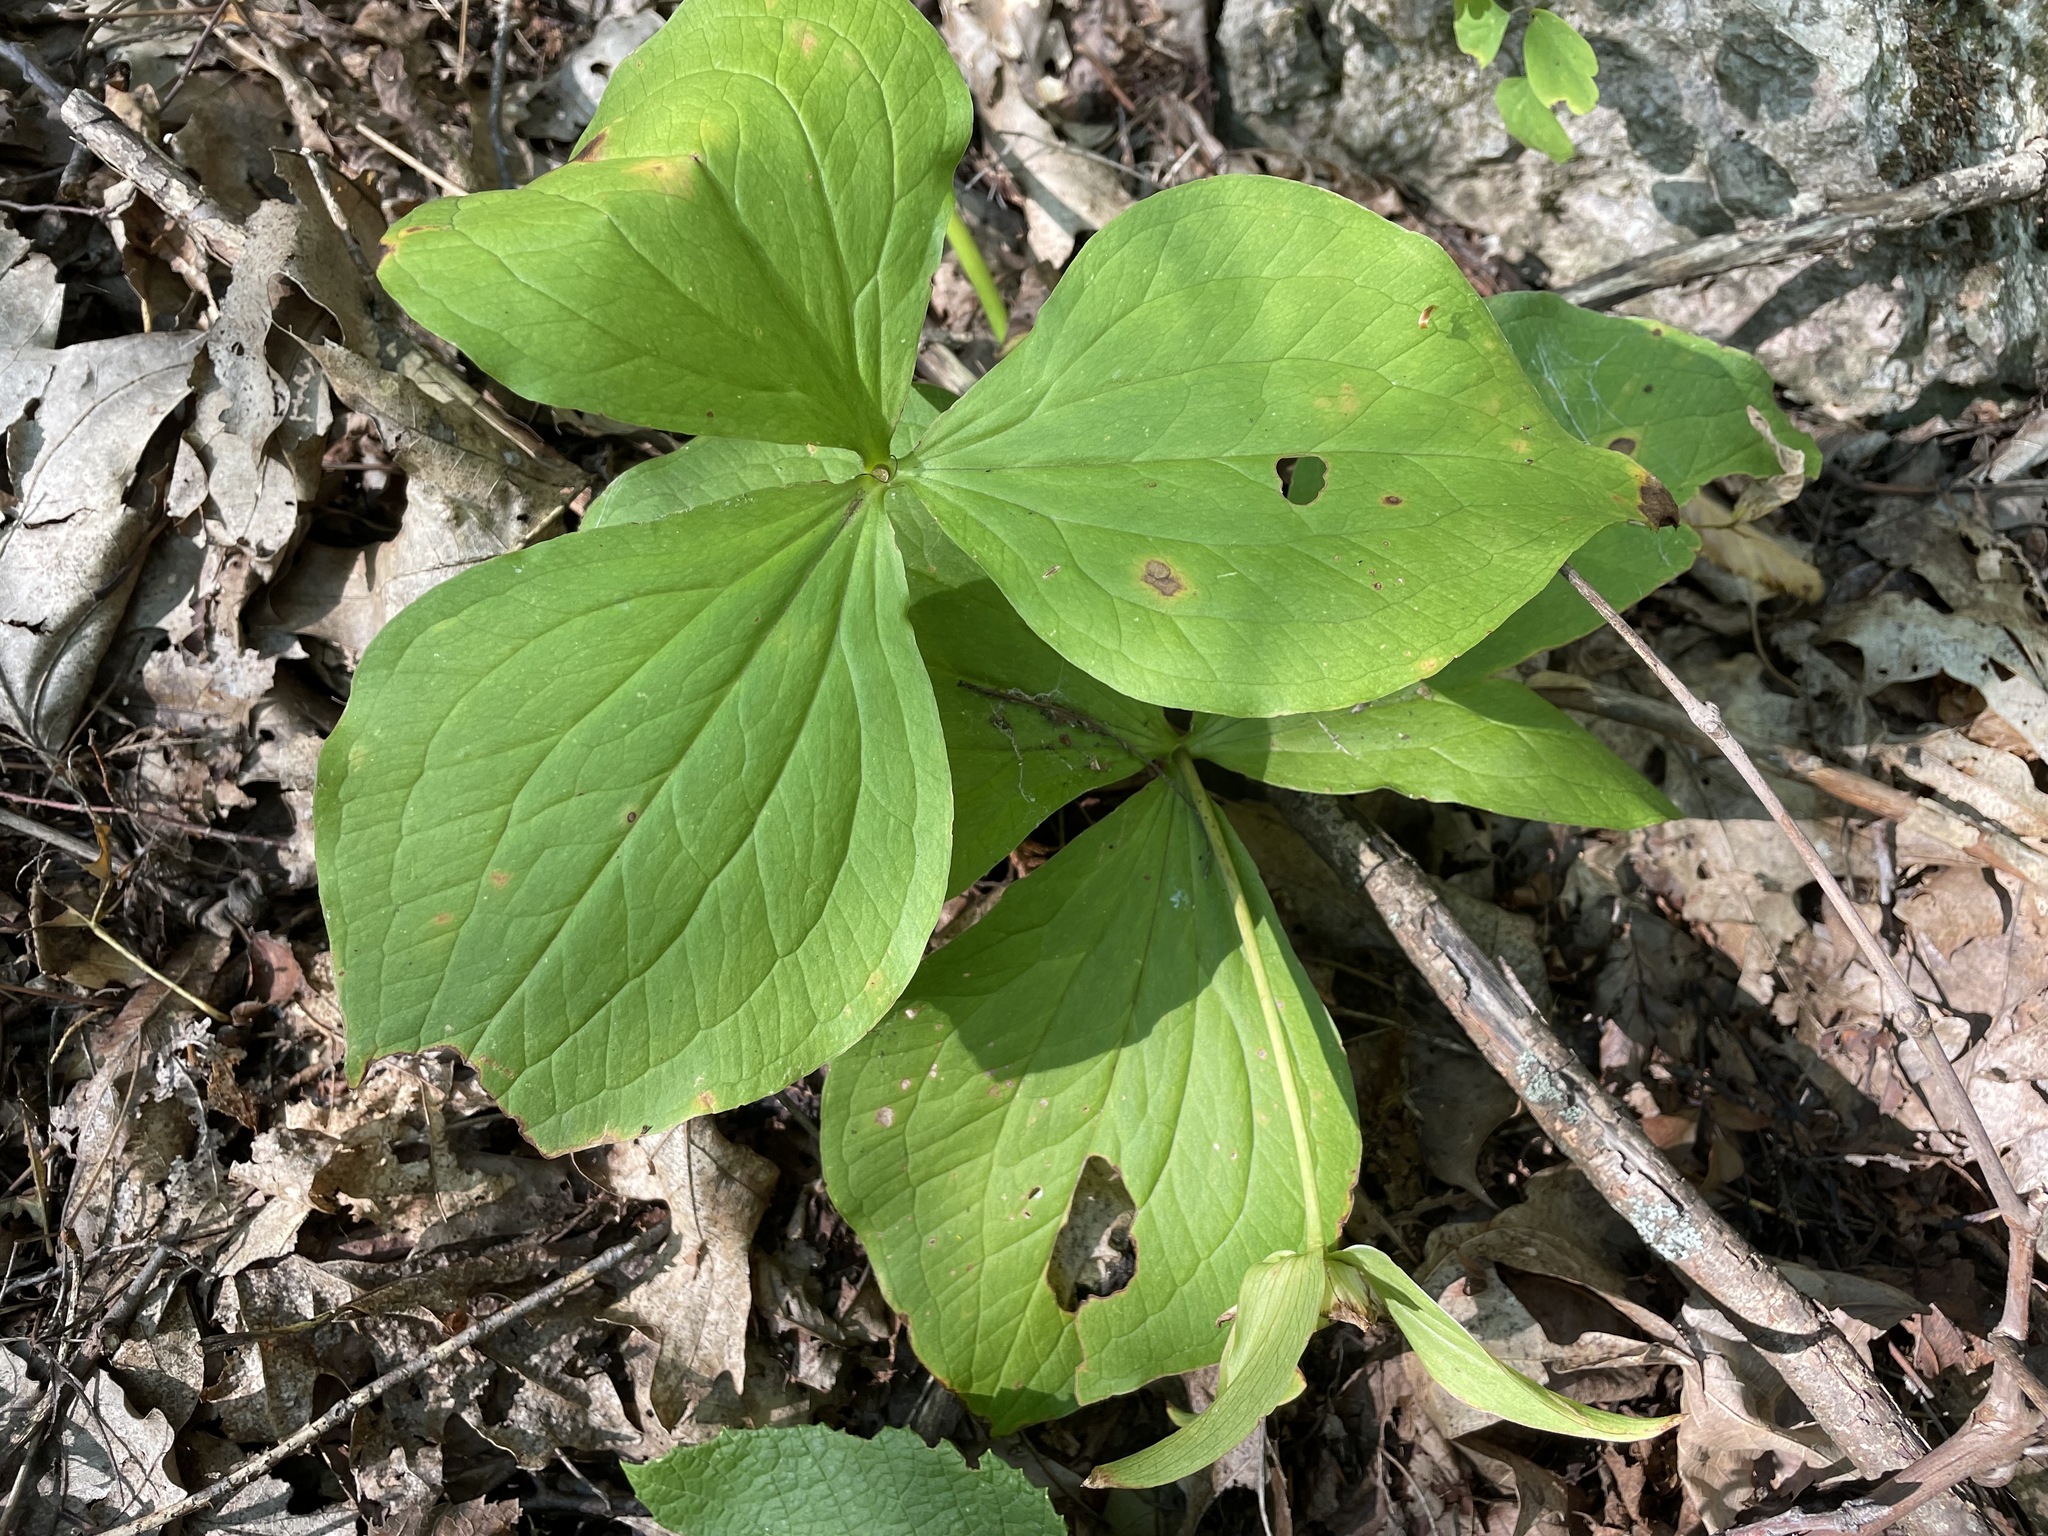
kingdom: Plantae
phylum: Tracheophyta
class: Liliopsida
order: Liliales
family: Melanthiaceae
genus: Trillium
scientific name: Trillium grandiflorum
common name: Great white trillium
